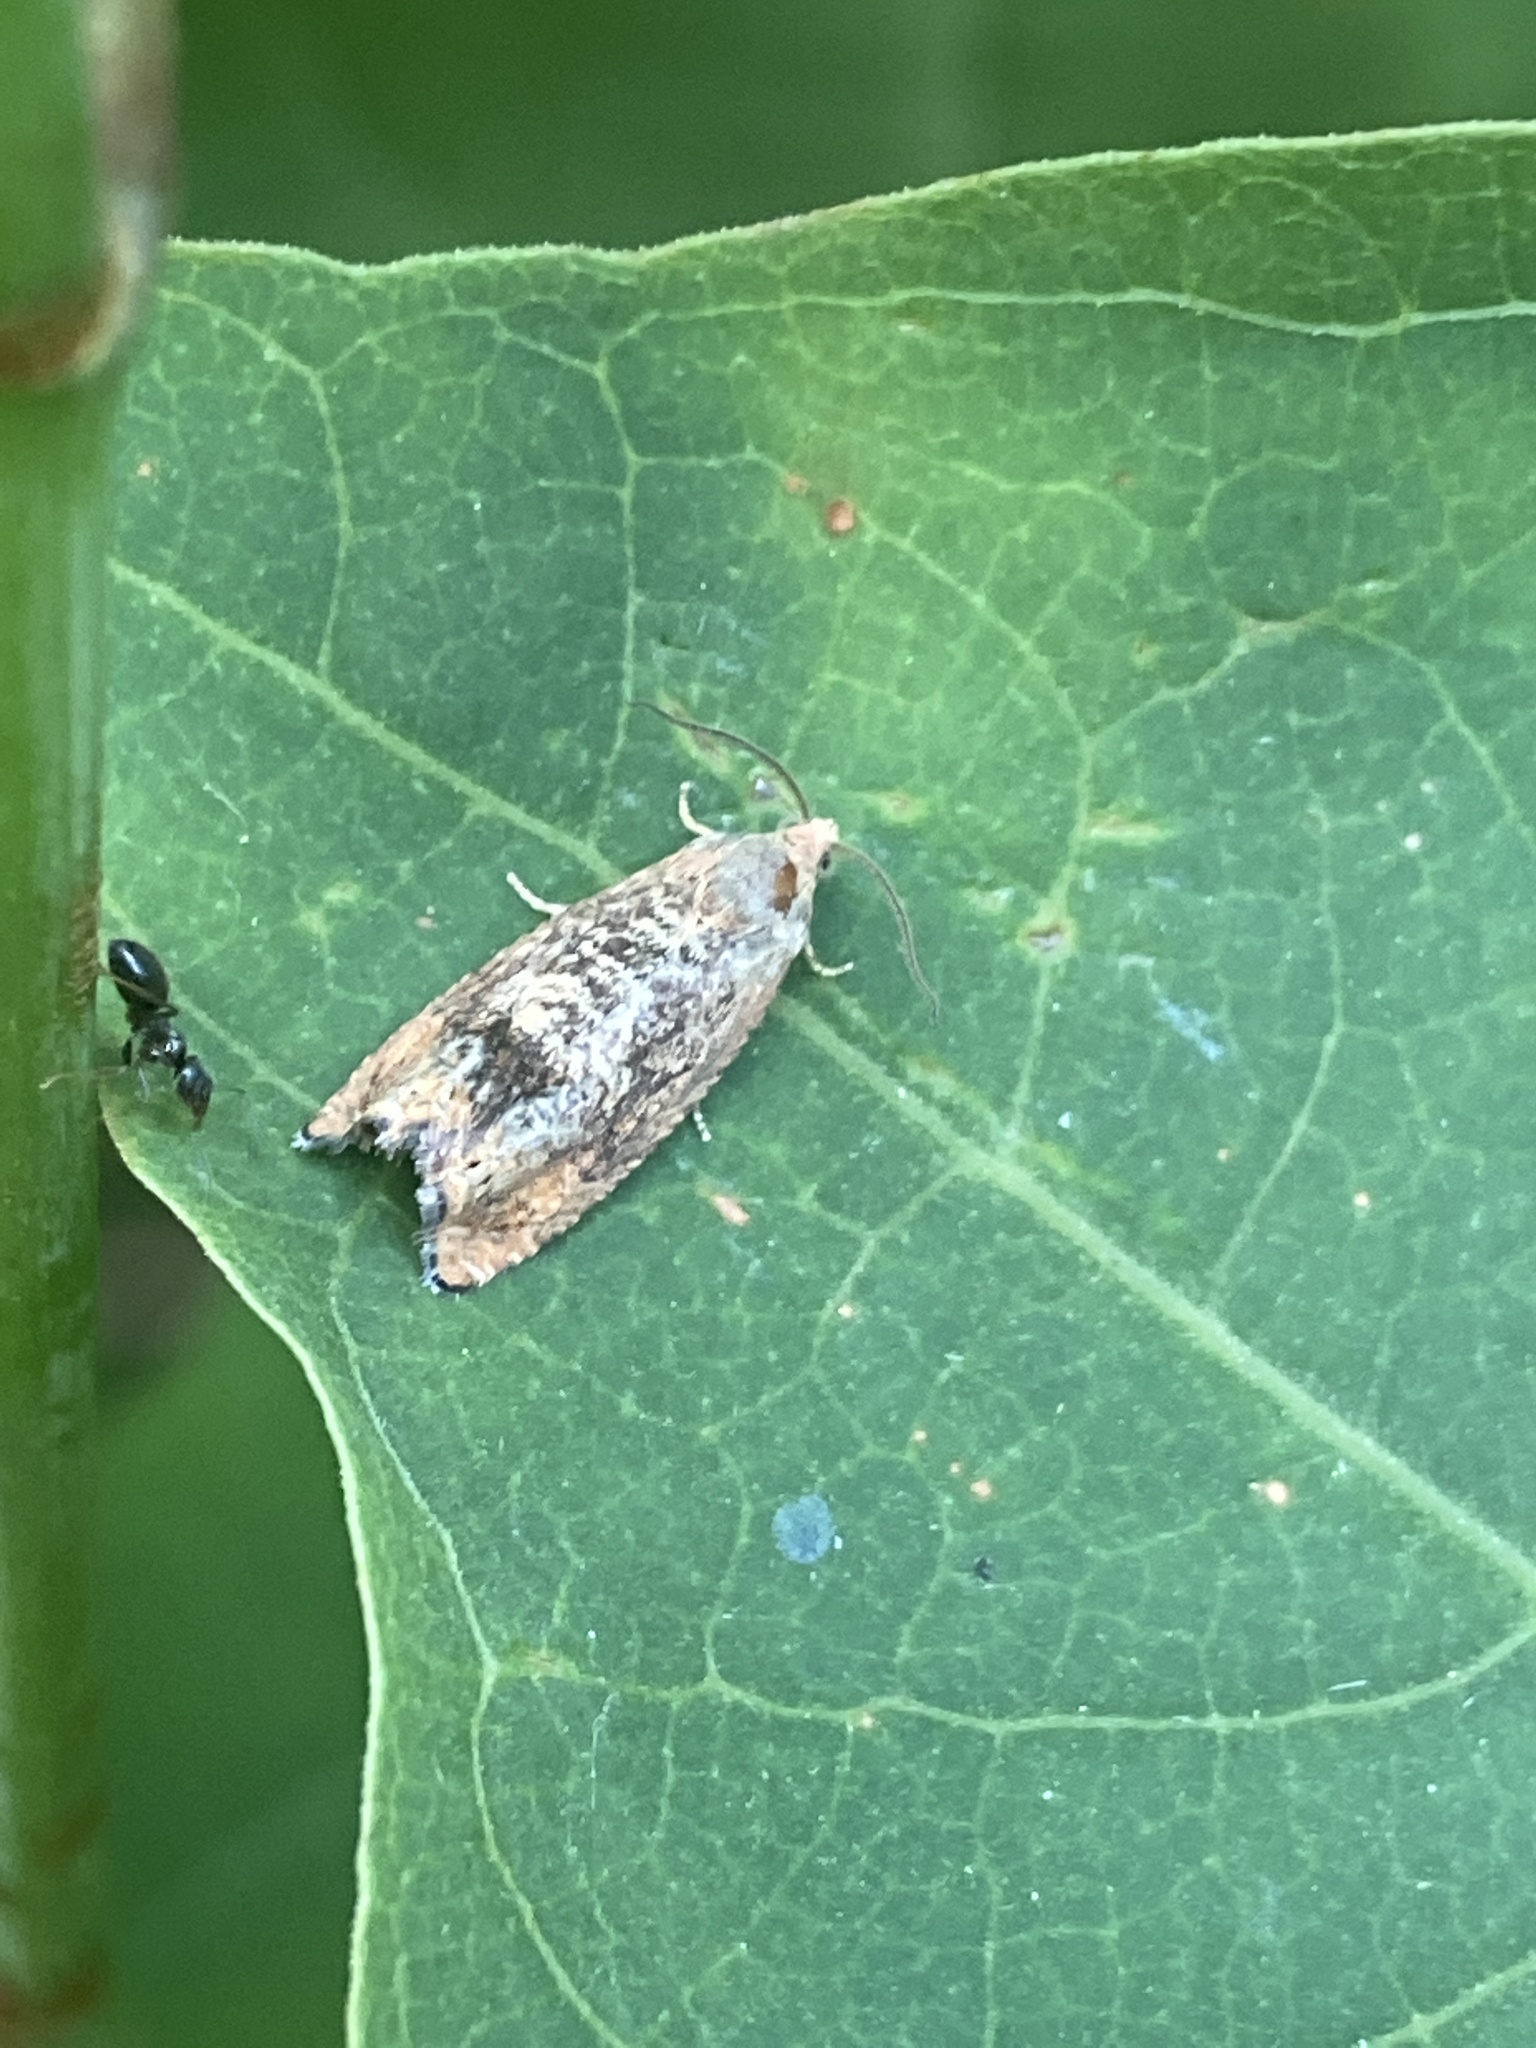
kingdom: Animalia
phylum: Arthropoda
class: Insecta
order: Lepidoptera
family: Tortricidae
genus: Cydia
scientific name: Cydia amplana
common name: Vagrant piercer
